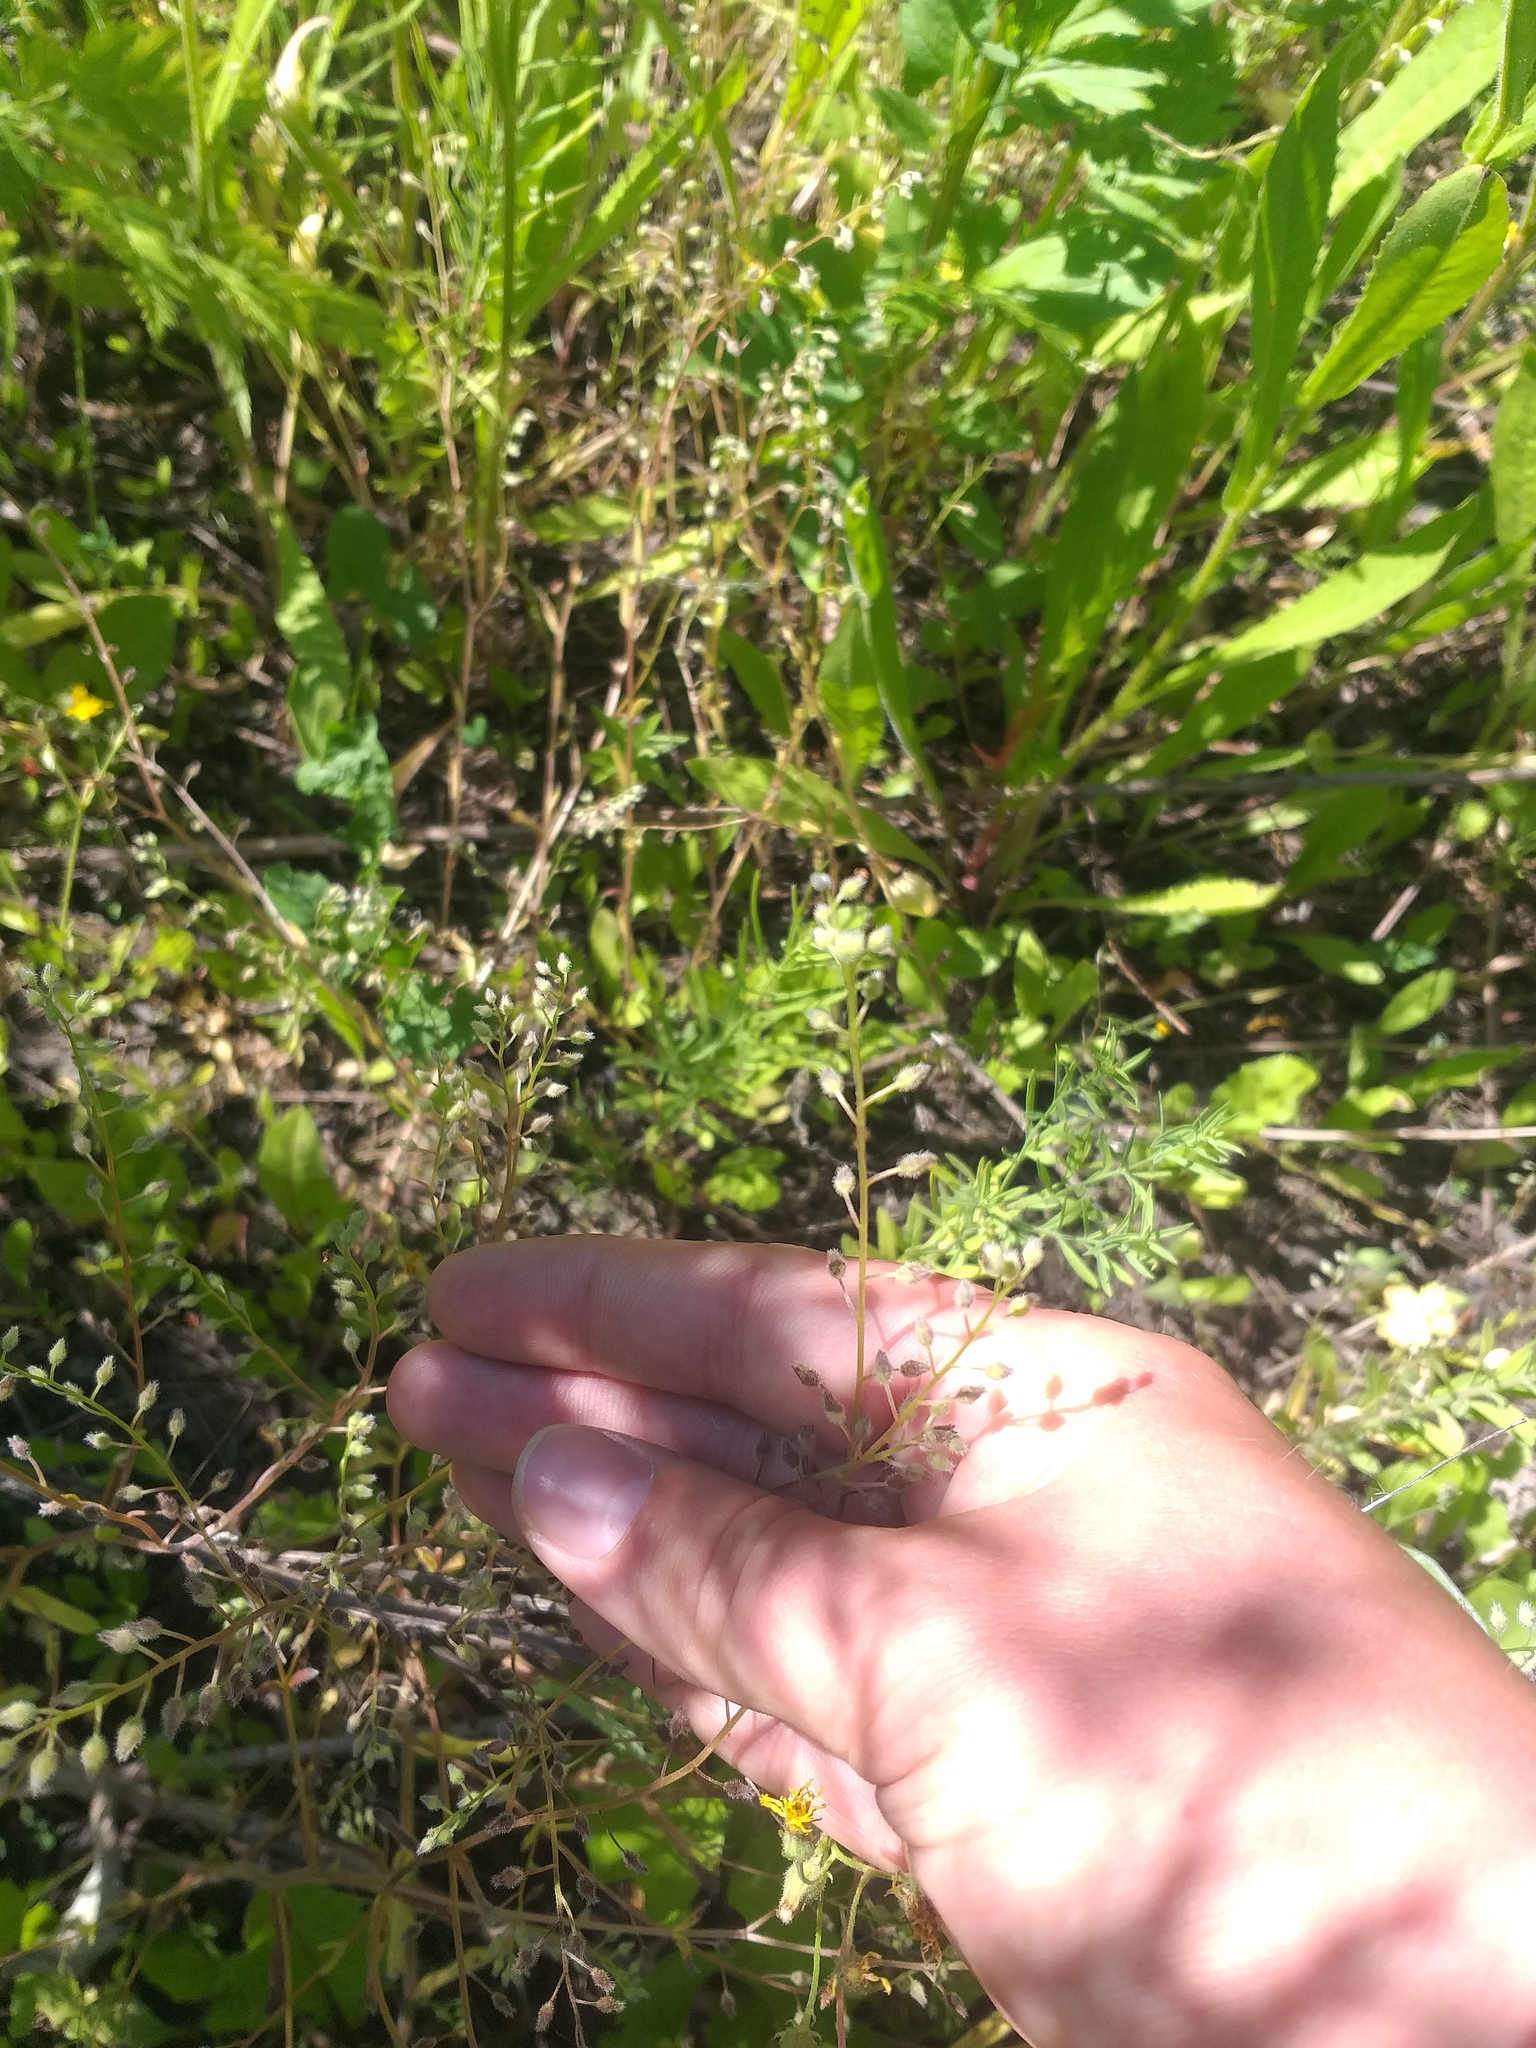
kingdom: Plantae
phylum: Tracheophyta
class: Magnoliopsida
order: Boraginales
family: Boraginaceae
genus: Myosotis
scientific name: Myosotis arvensis
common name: Field forget-me-not
